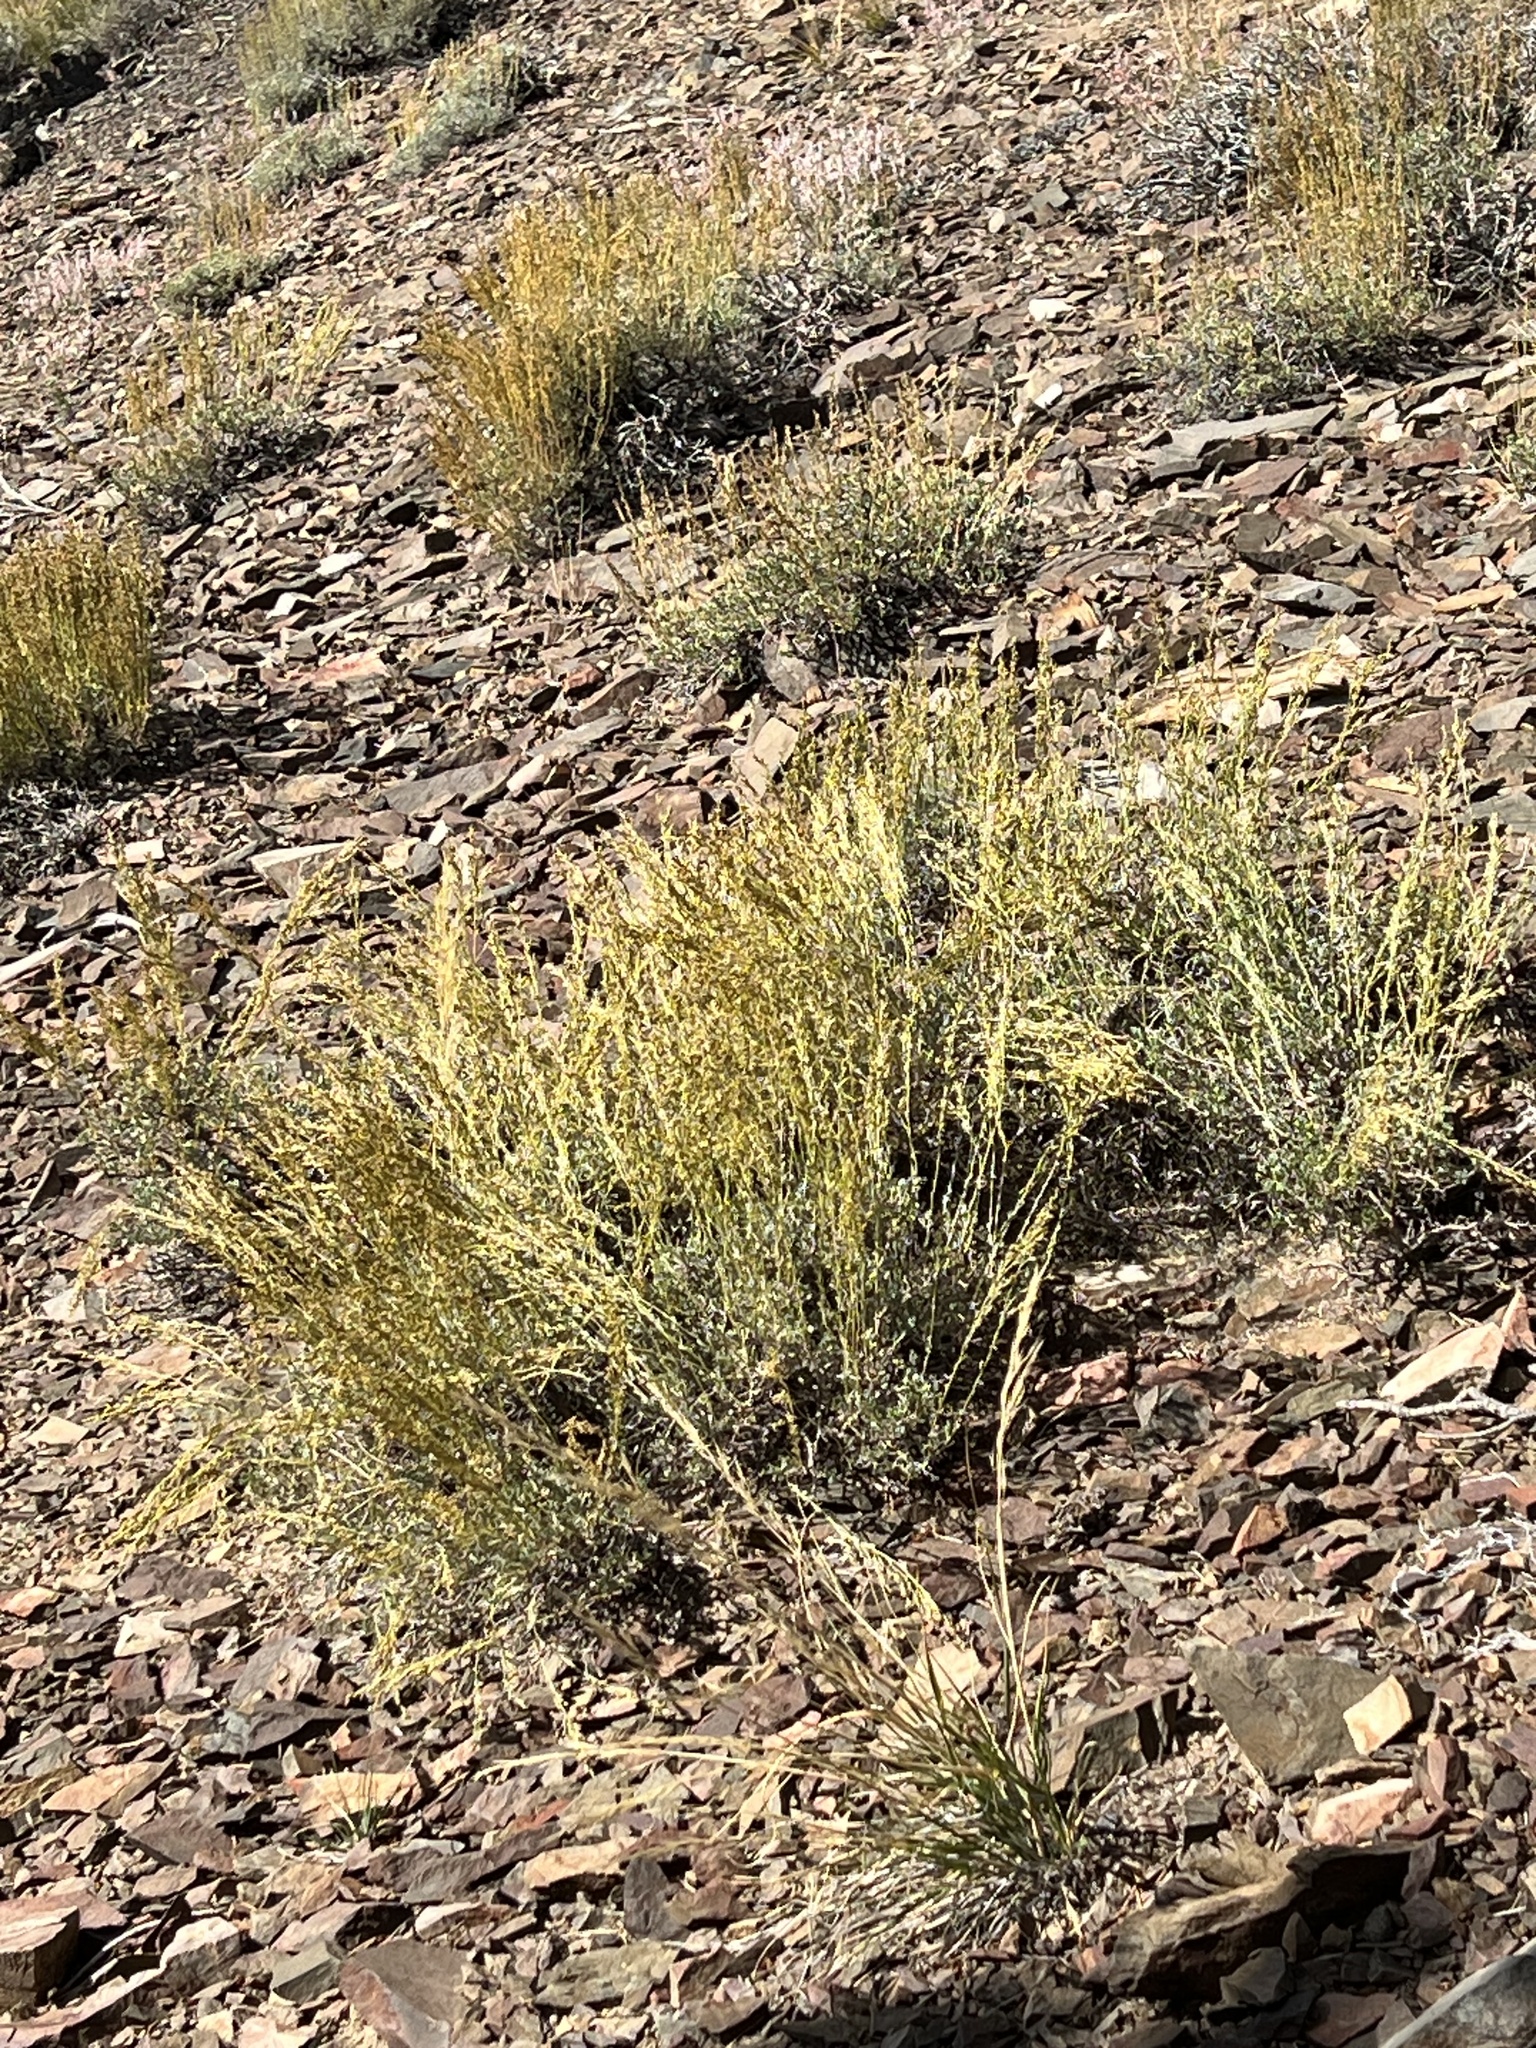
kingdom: Plantae
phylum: Tracheophyta
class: Magnoliopsida
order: Asterales
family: Asteraceae
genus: Artemisia
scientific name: Artemisia nova
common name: Black-sage
